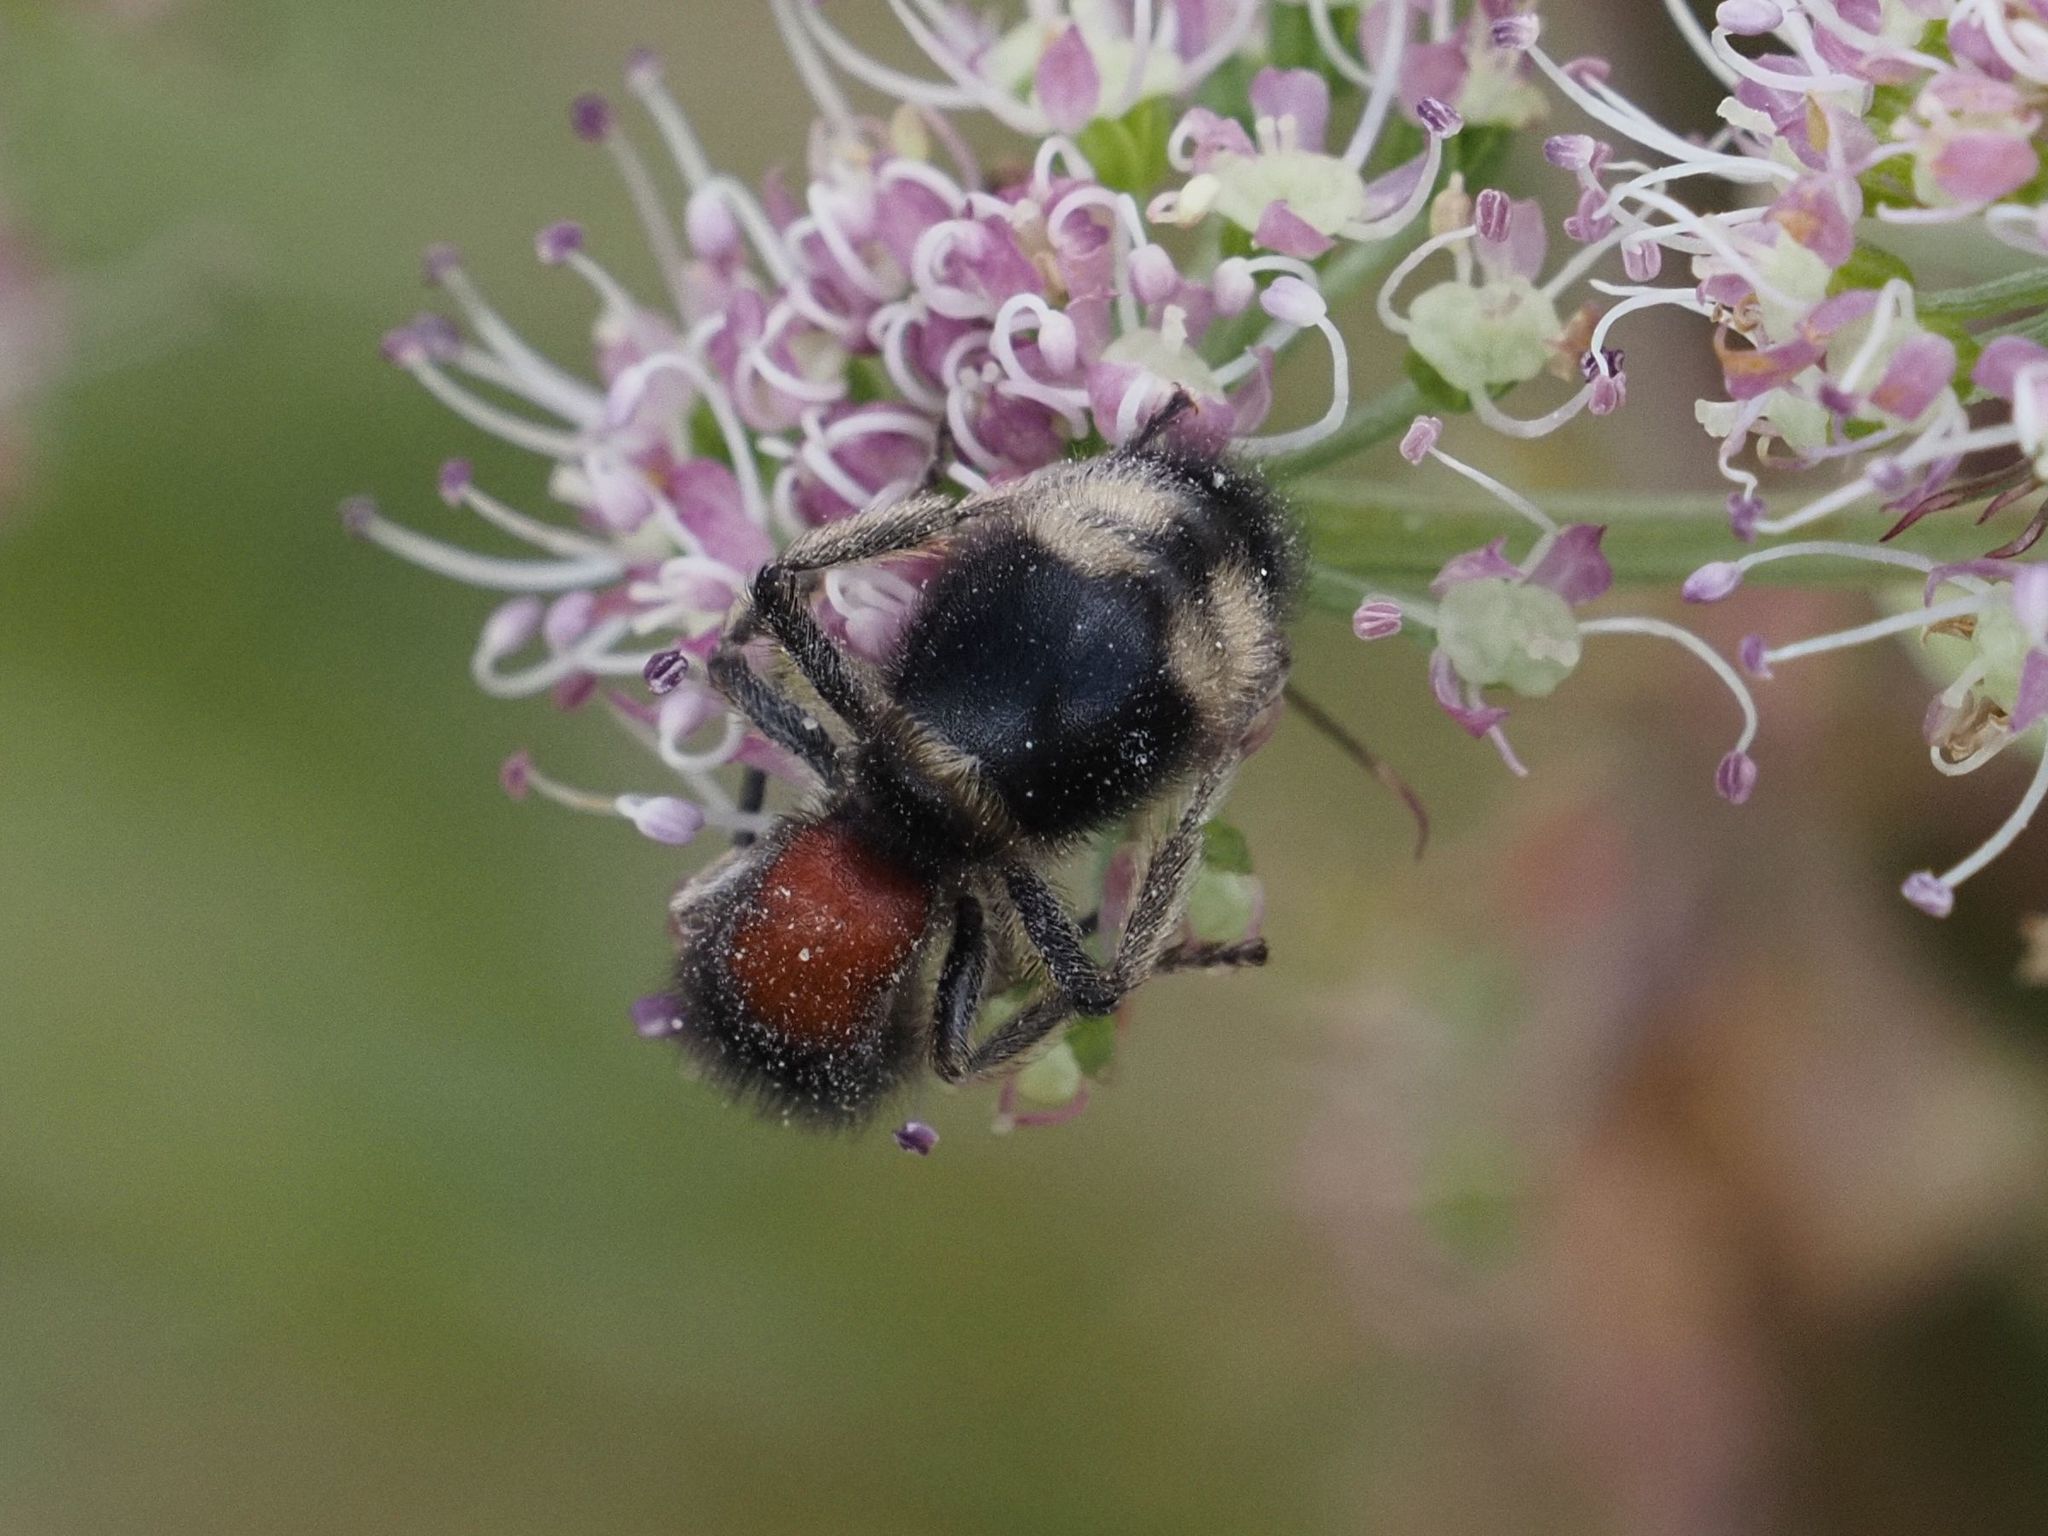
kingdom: Animalia
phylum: Arthropoda
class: Insecta
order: Hymenoptera
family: Mutillidae
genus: Mutilla
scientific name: Mutilla marginata
